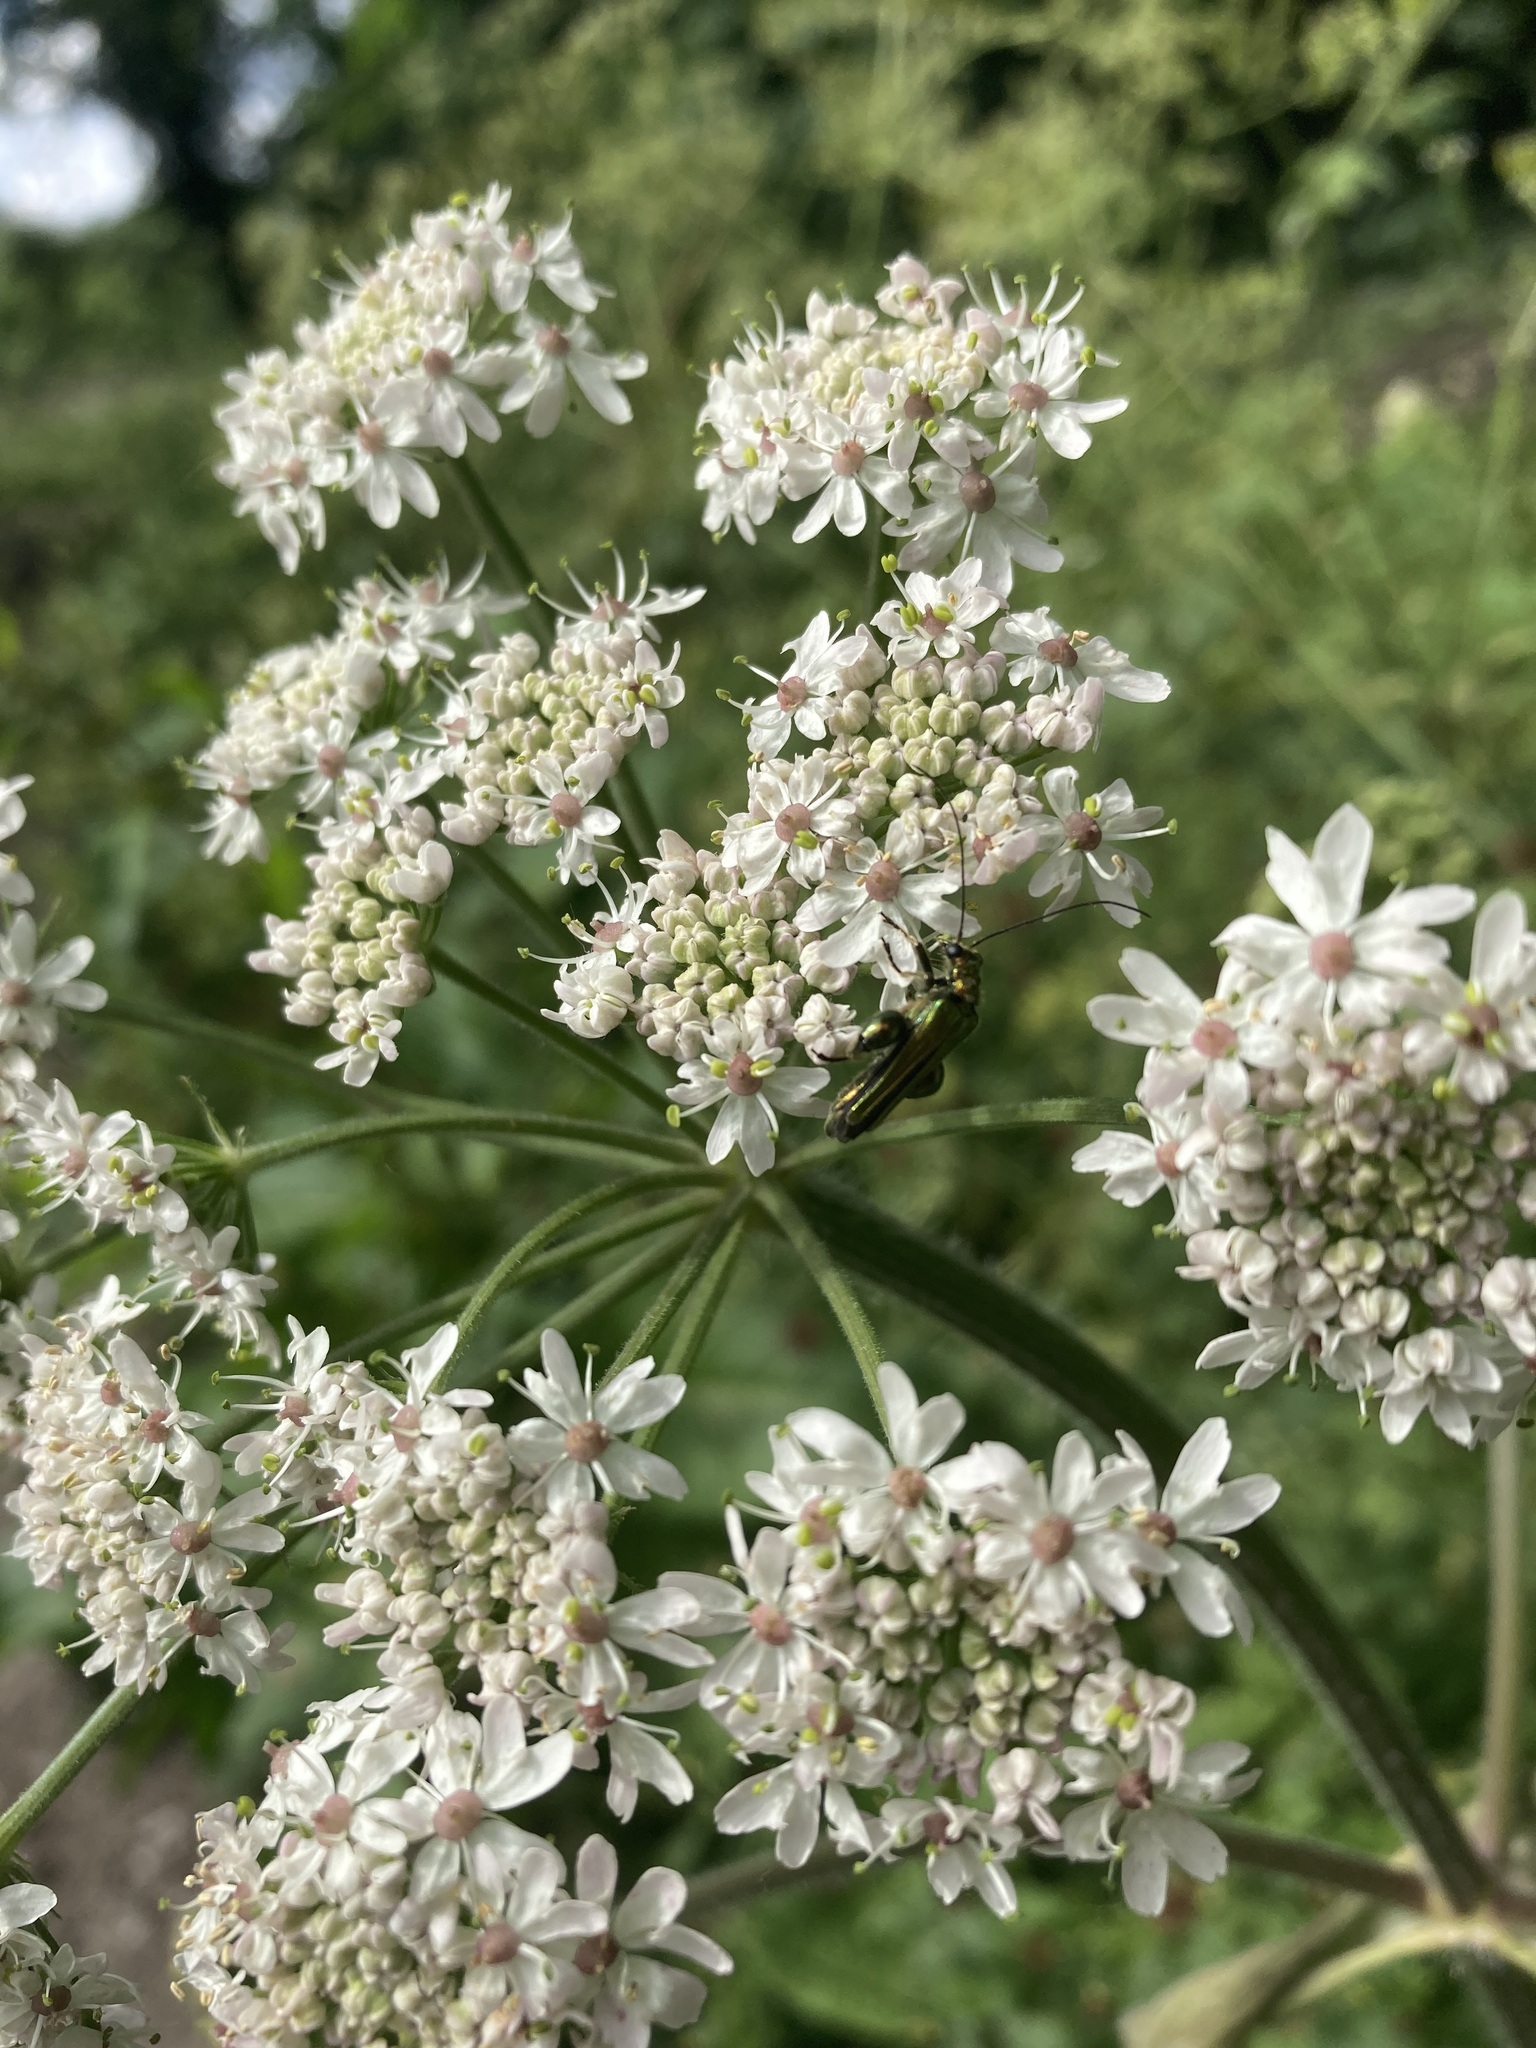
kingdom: Animalia
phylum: Arthropoda
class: Insecta
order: Coleoptera
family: Oedemeridae
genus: Oedemera
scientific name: Oedemera nobilis
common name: Swollen-thighed beetle
